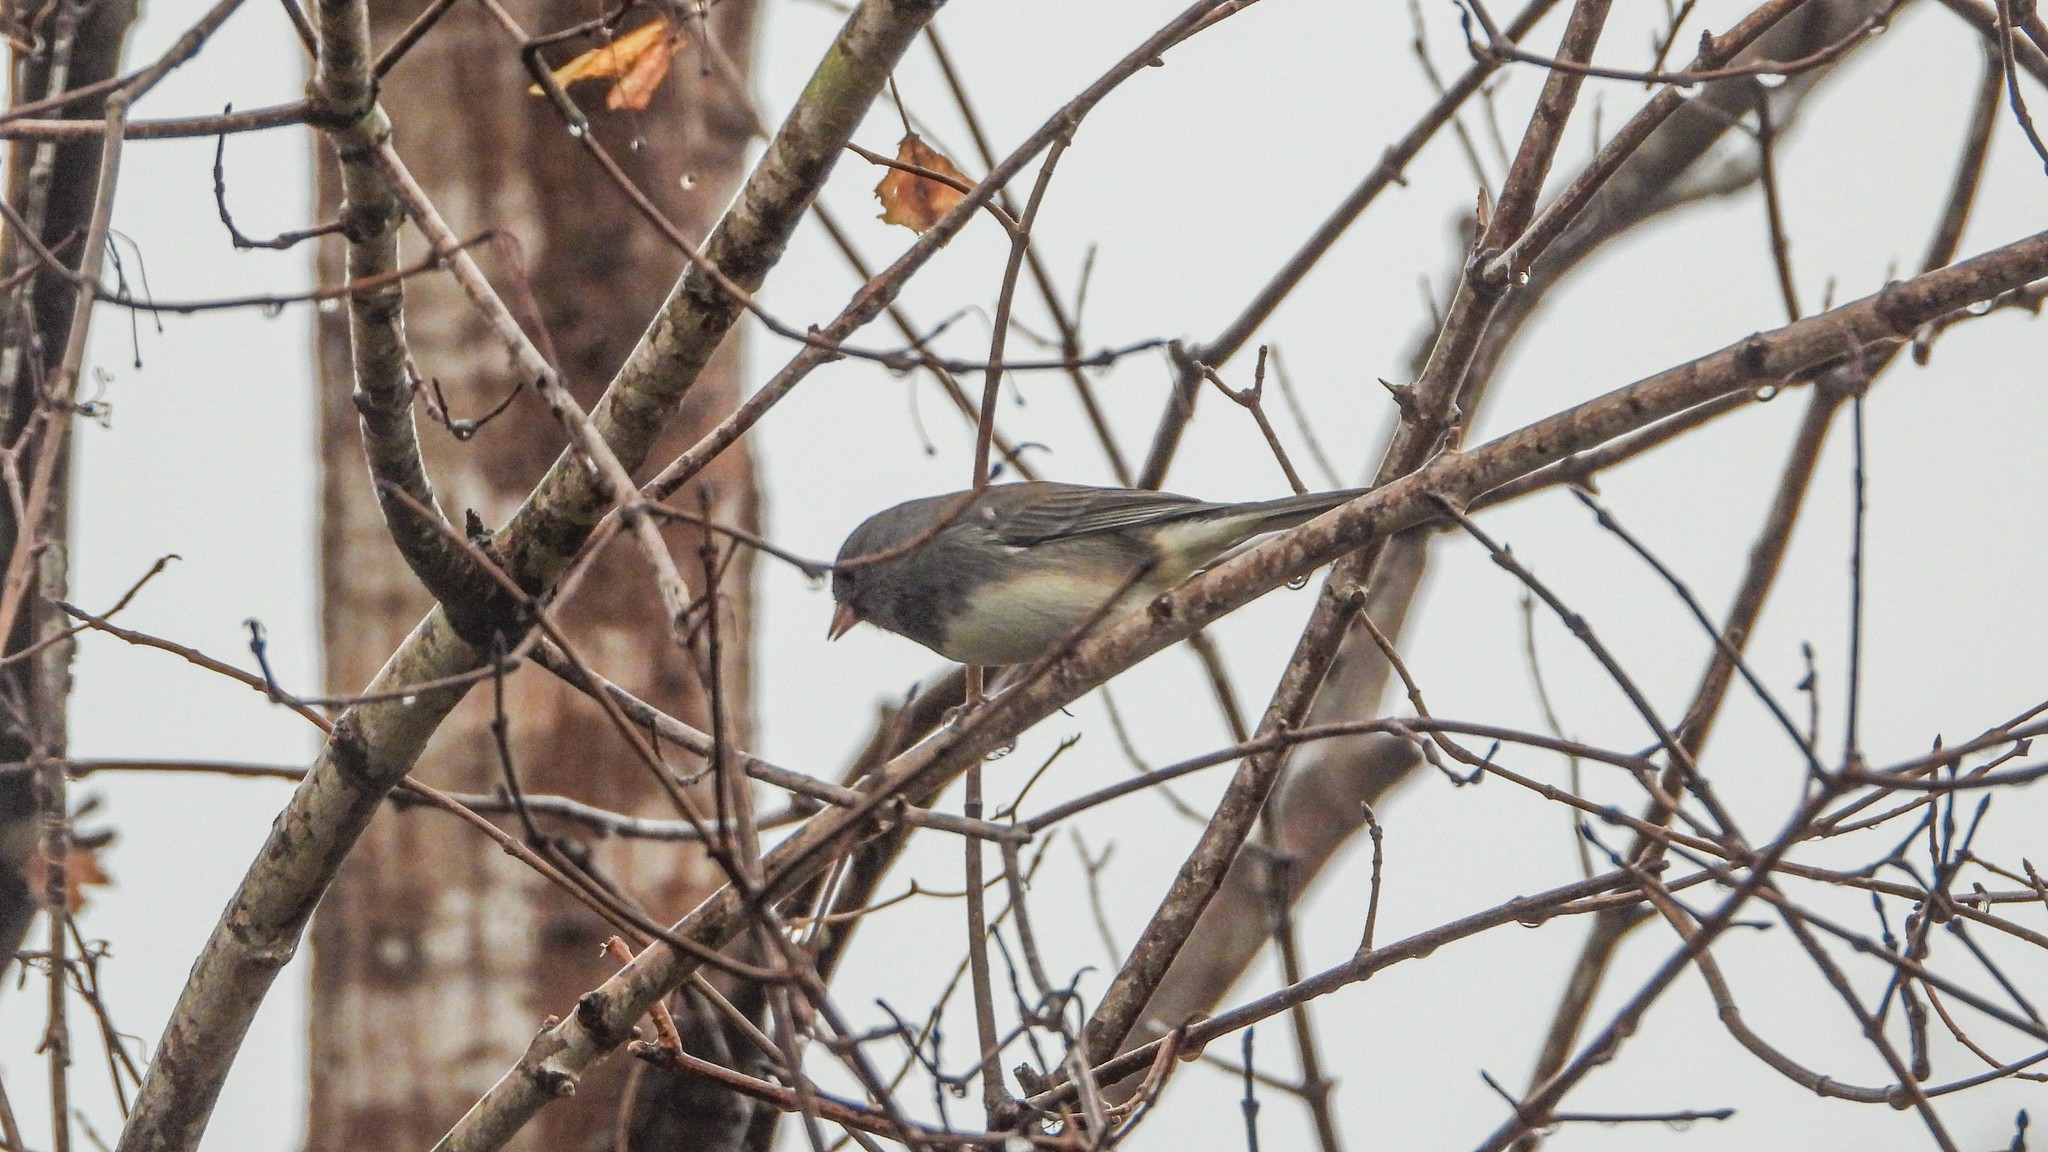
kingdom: Animalia
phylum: Chordata
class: Aves
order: Passeriformes
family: Passerellidae
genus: Junco
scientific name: Junco hyemalis
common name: Dark-eyed junco
